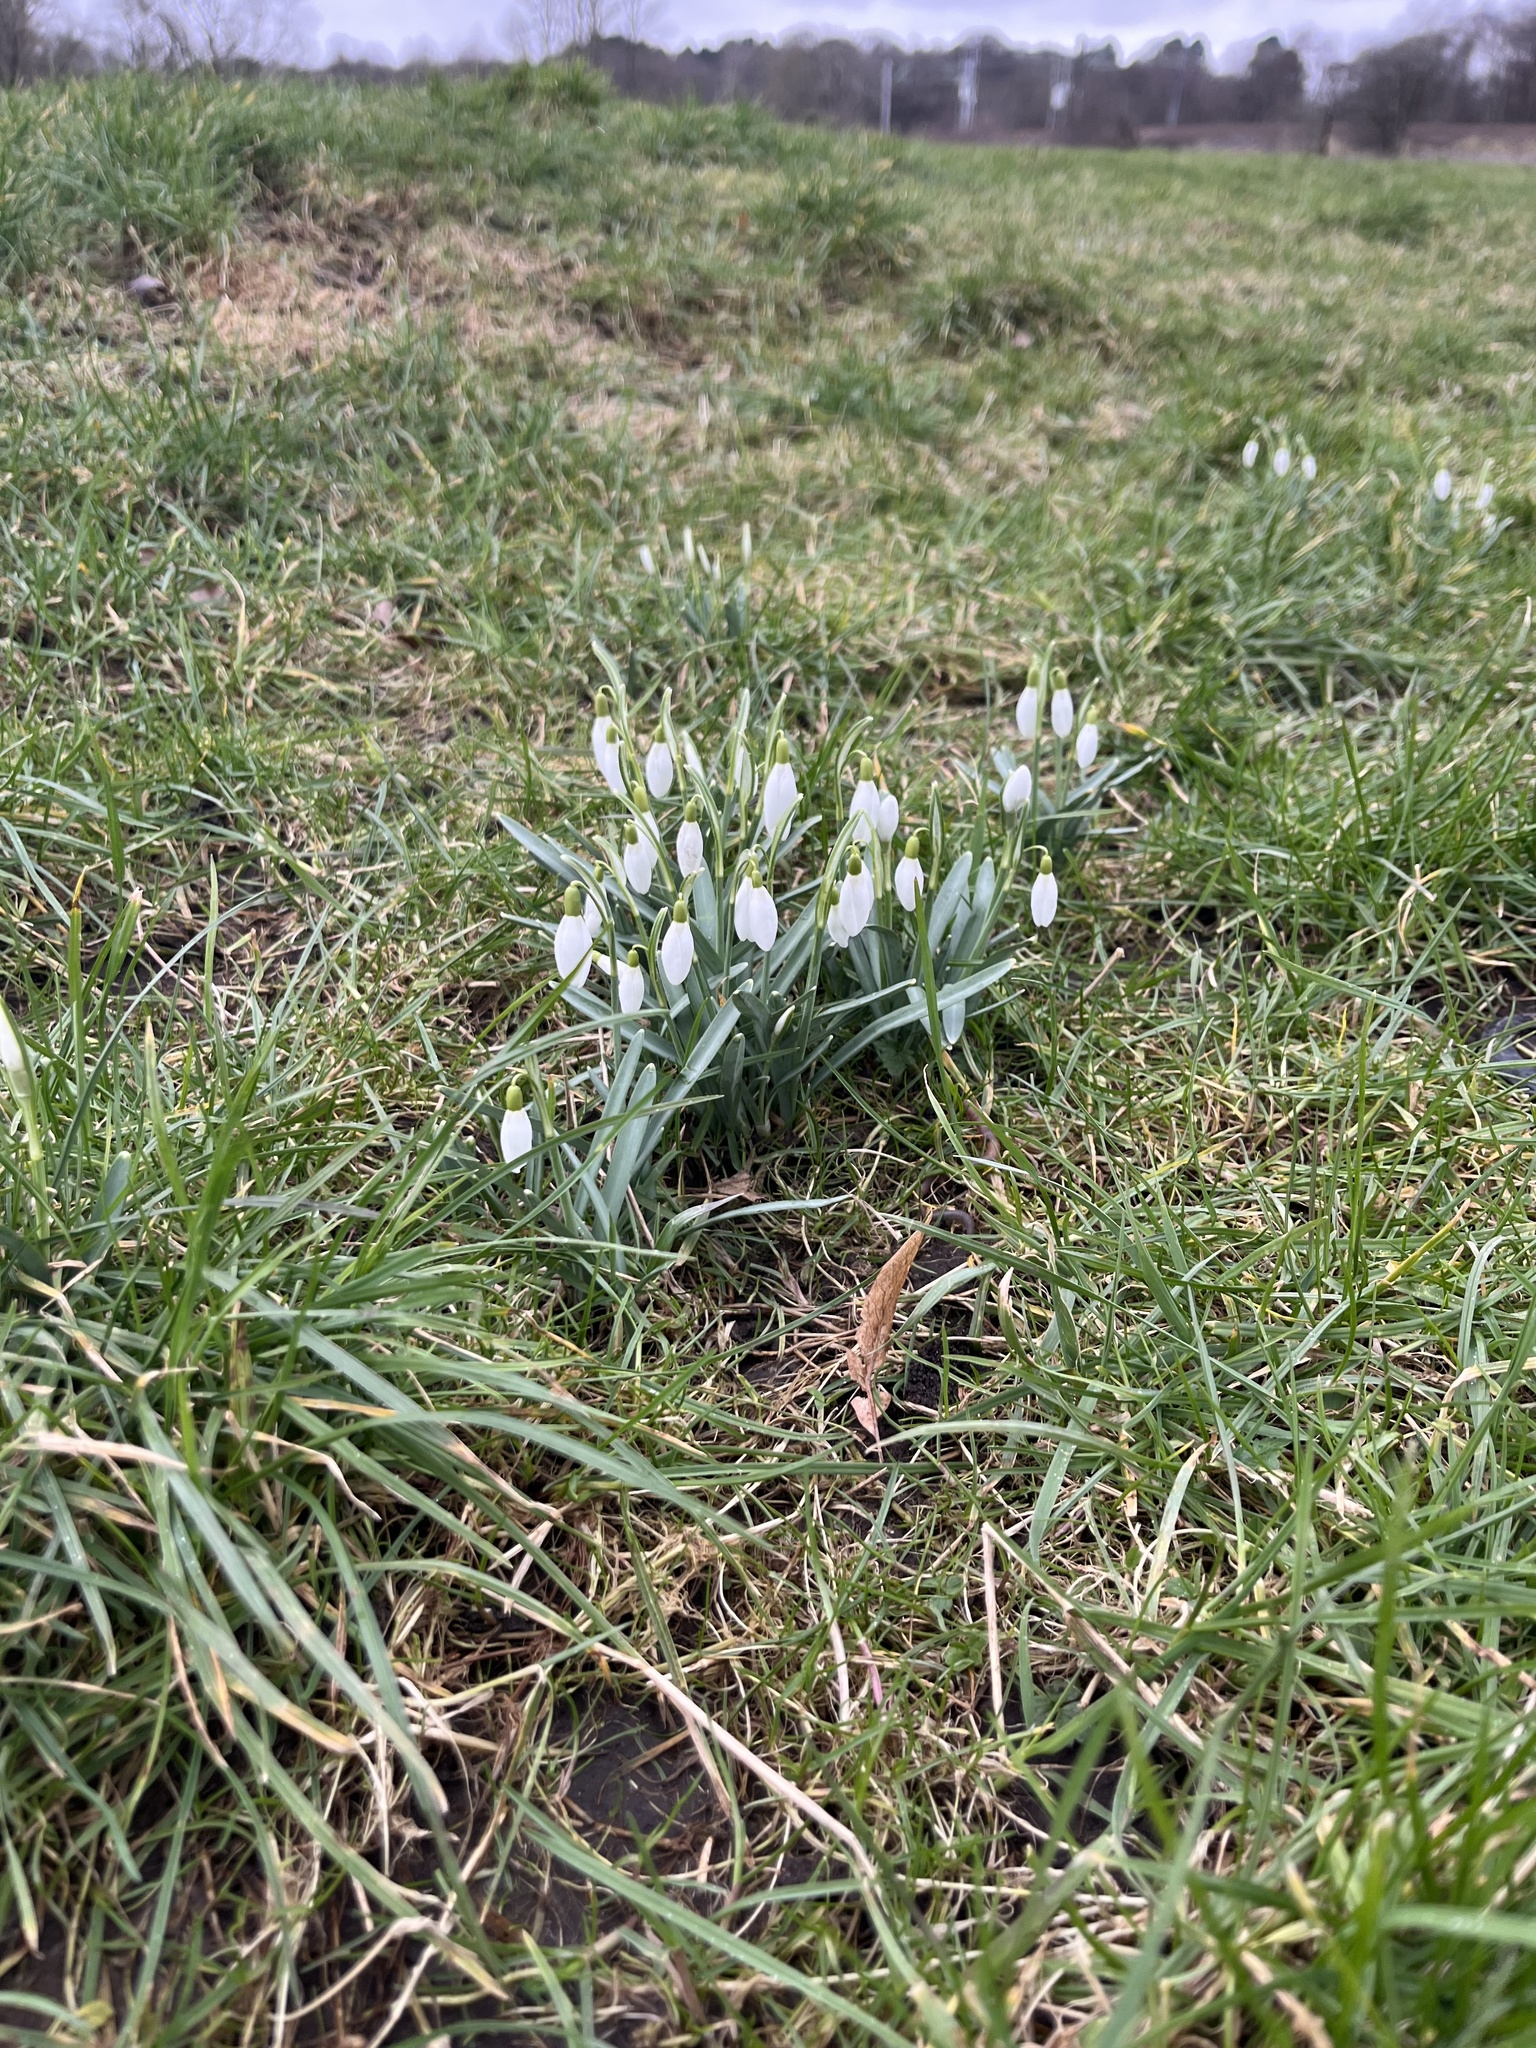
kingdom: Plantae
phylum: Tracheophyta
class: Liliopsida
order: Asparagales
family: Amaryllidaceae
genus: Galanthus
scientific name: Galanthus nivalis
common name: Snowdrop
